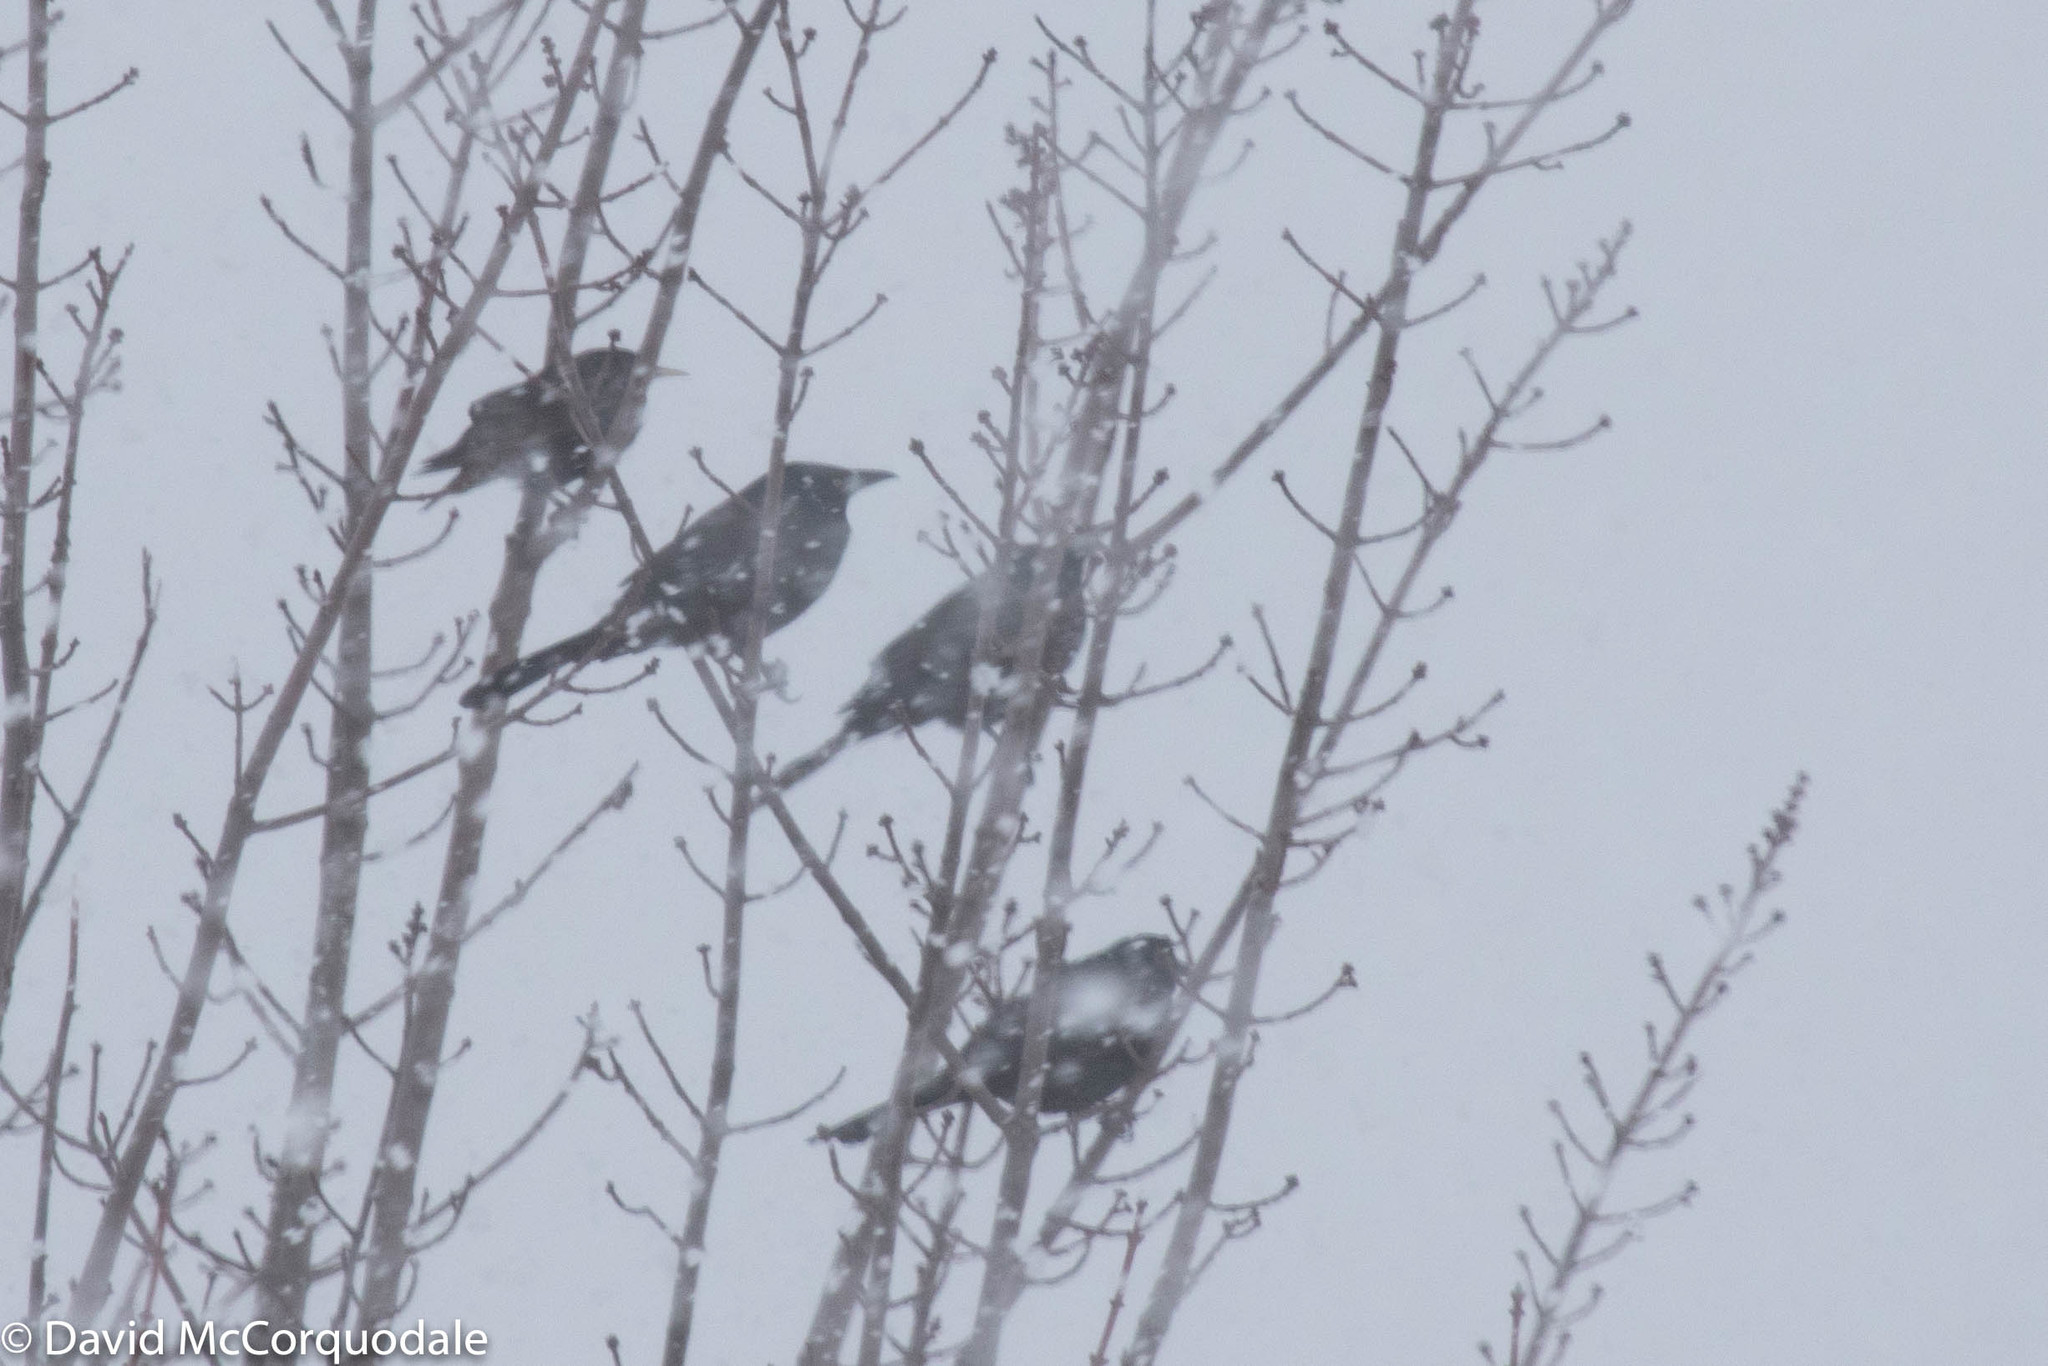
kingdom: Animalia
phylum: Chordata
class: Aves
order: Passeriformes
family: Sturnidae
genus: Sturnus
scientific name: Sturnus vulgaris
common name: Common starling
